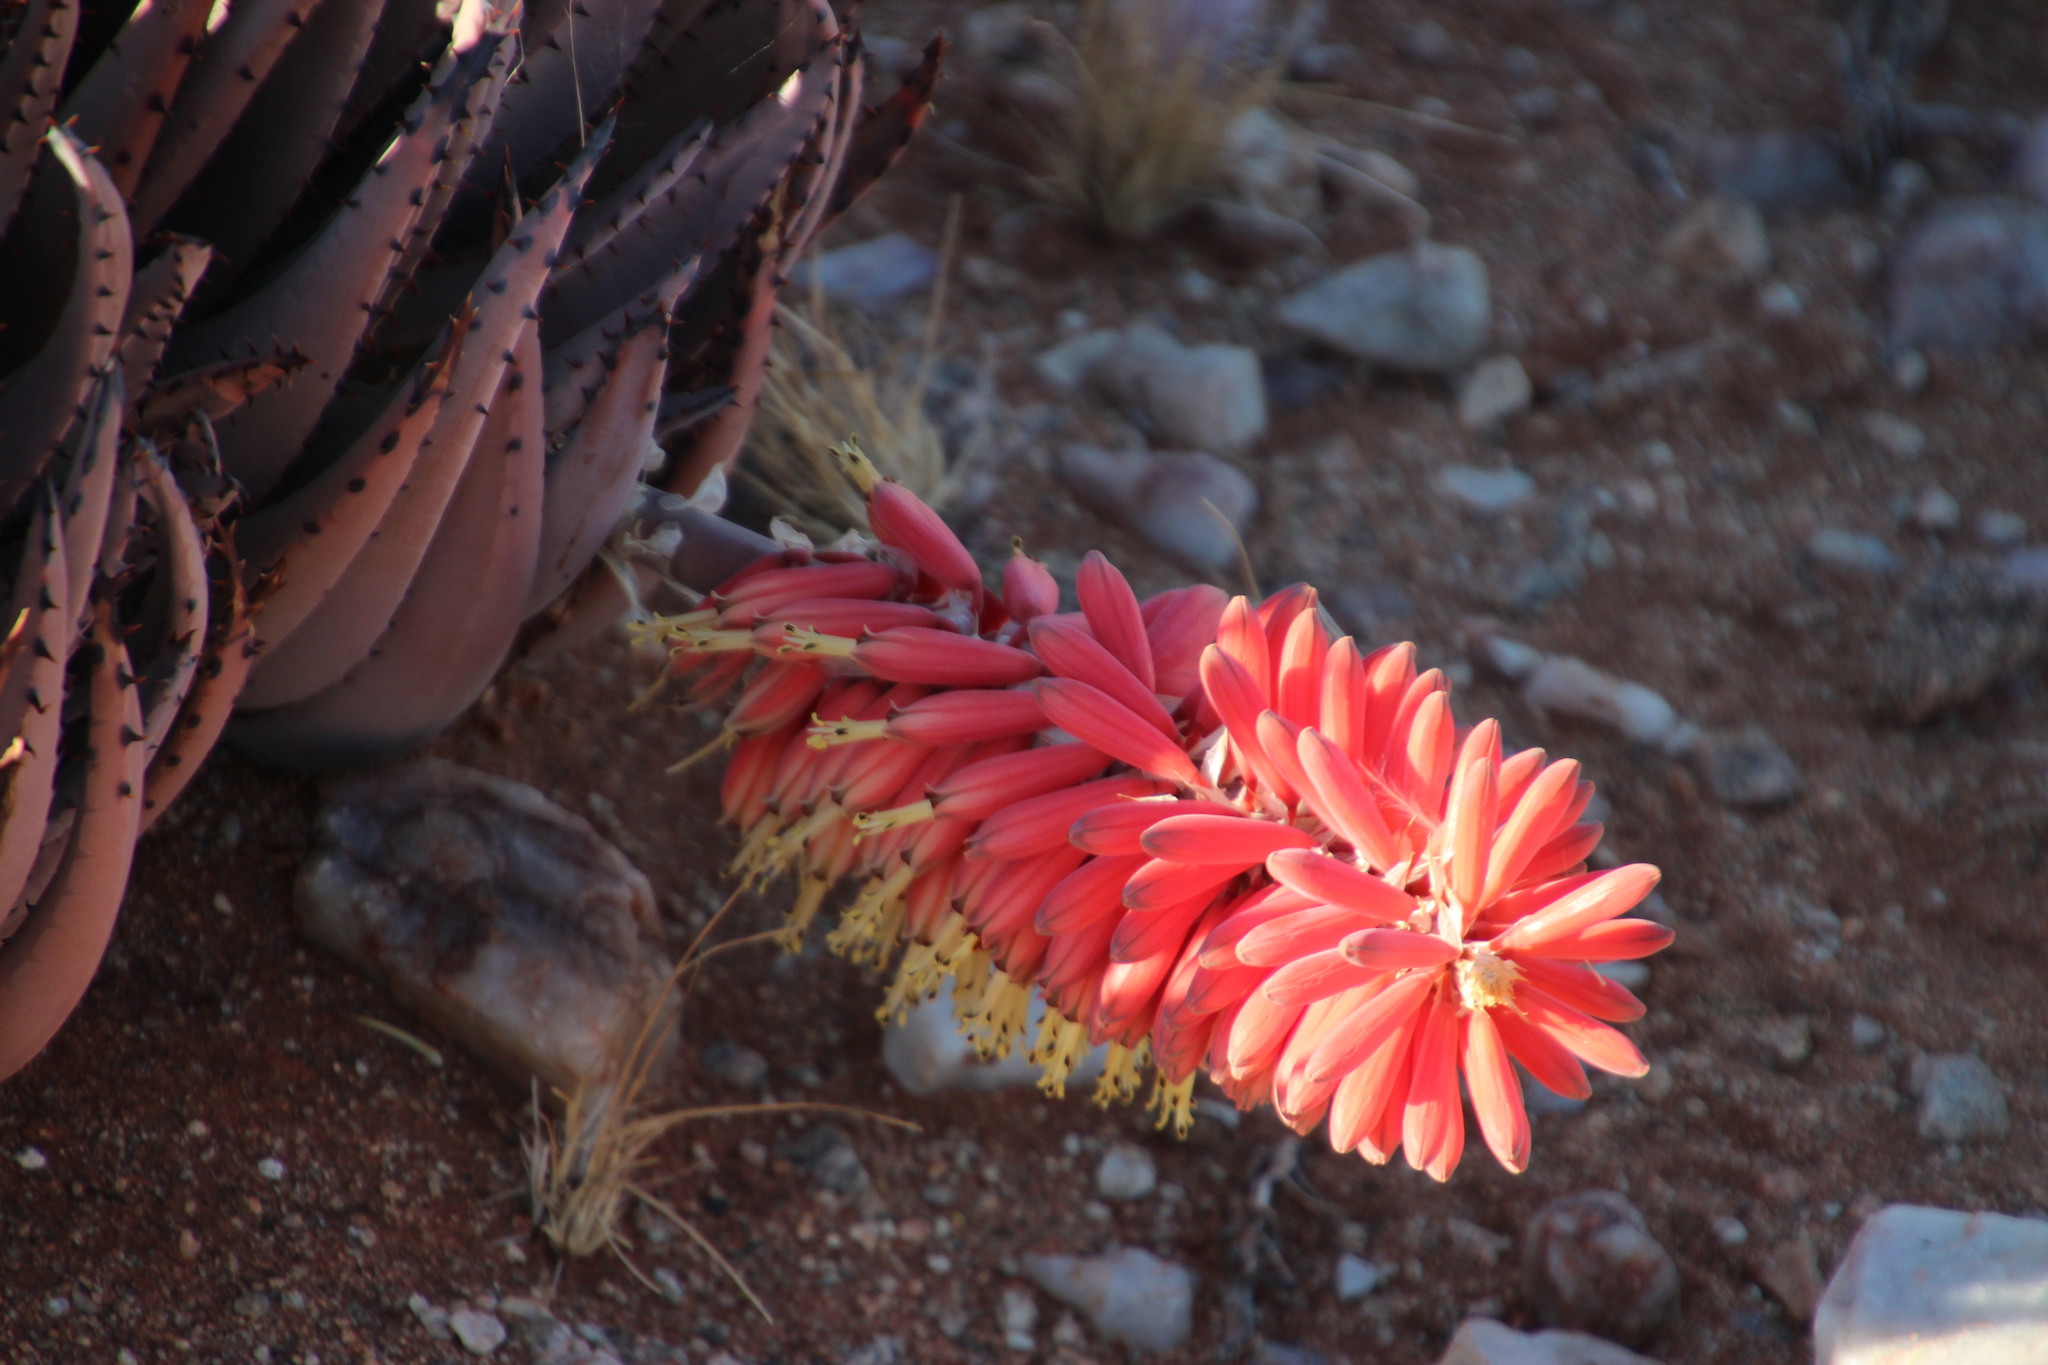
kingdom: Plantae
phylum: Tracheophyta
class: Liliopsida
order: Asparagales
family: Asphodelaceae
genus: Aloe
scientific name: Aloe claviflora
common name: Cannon aloe
